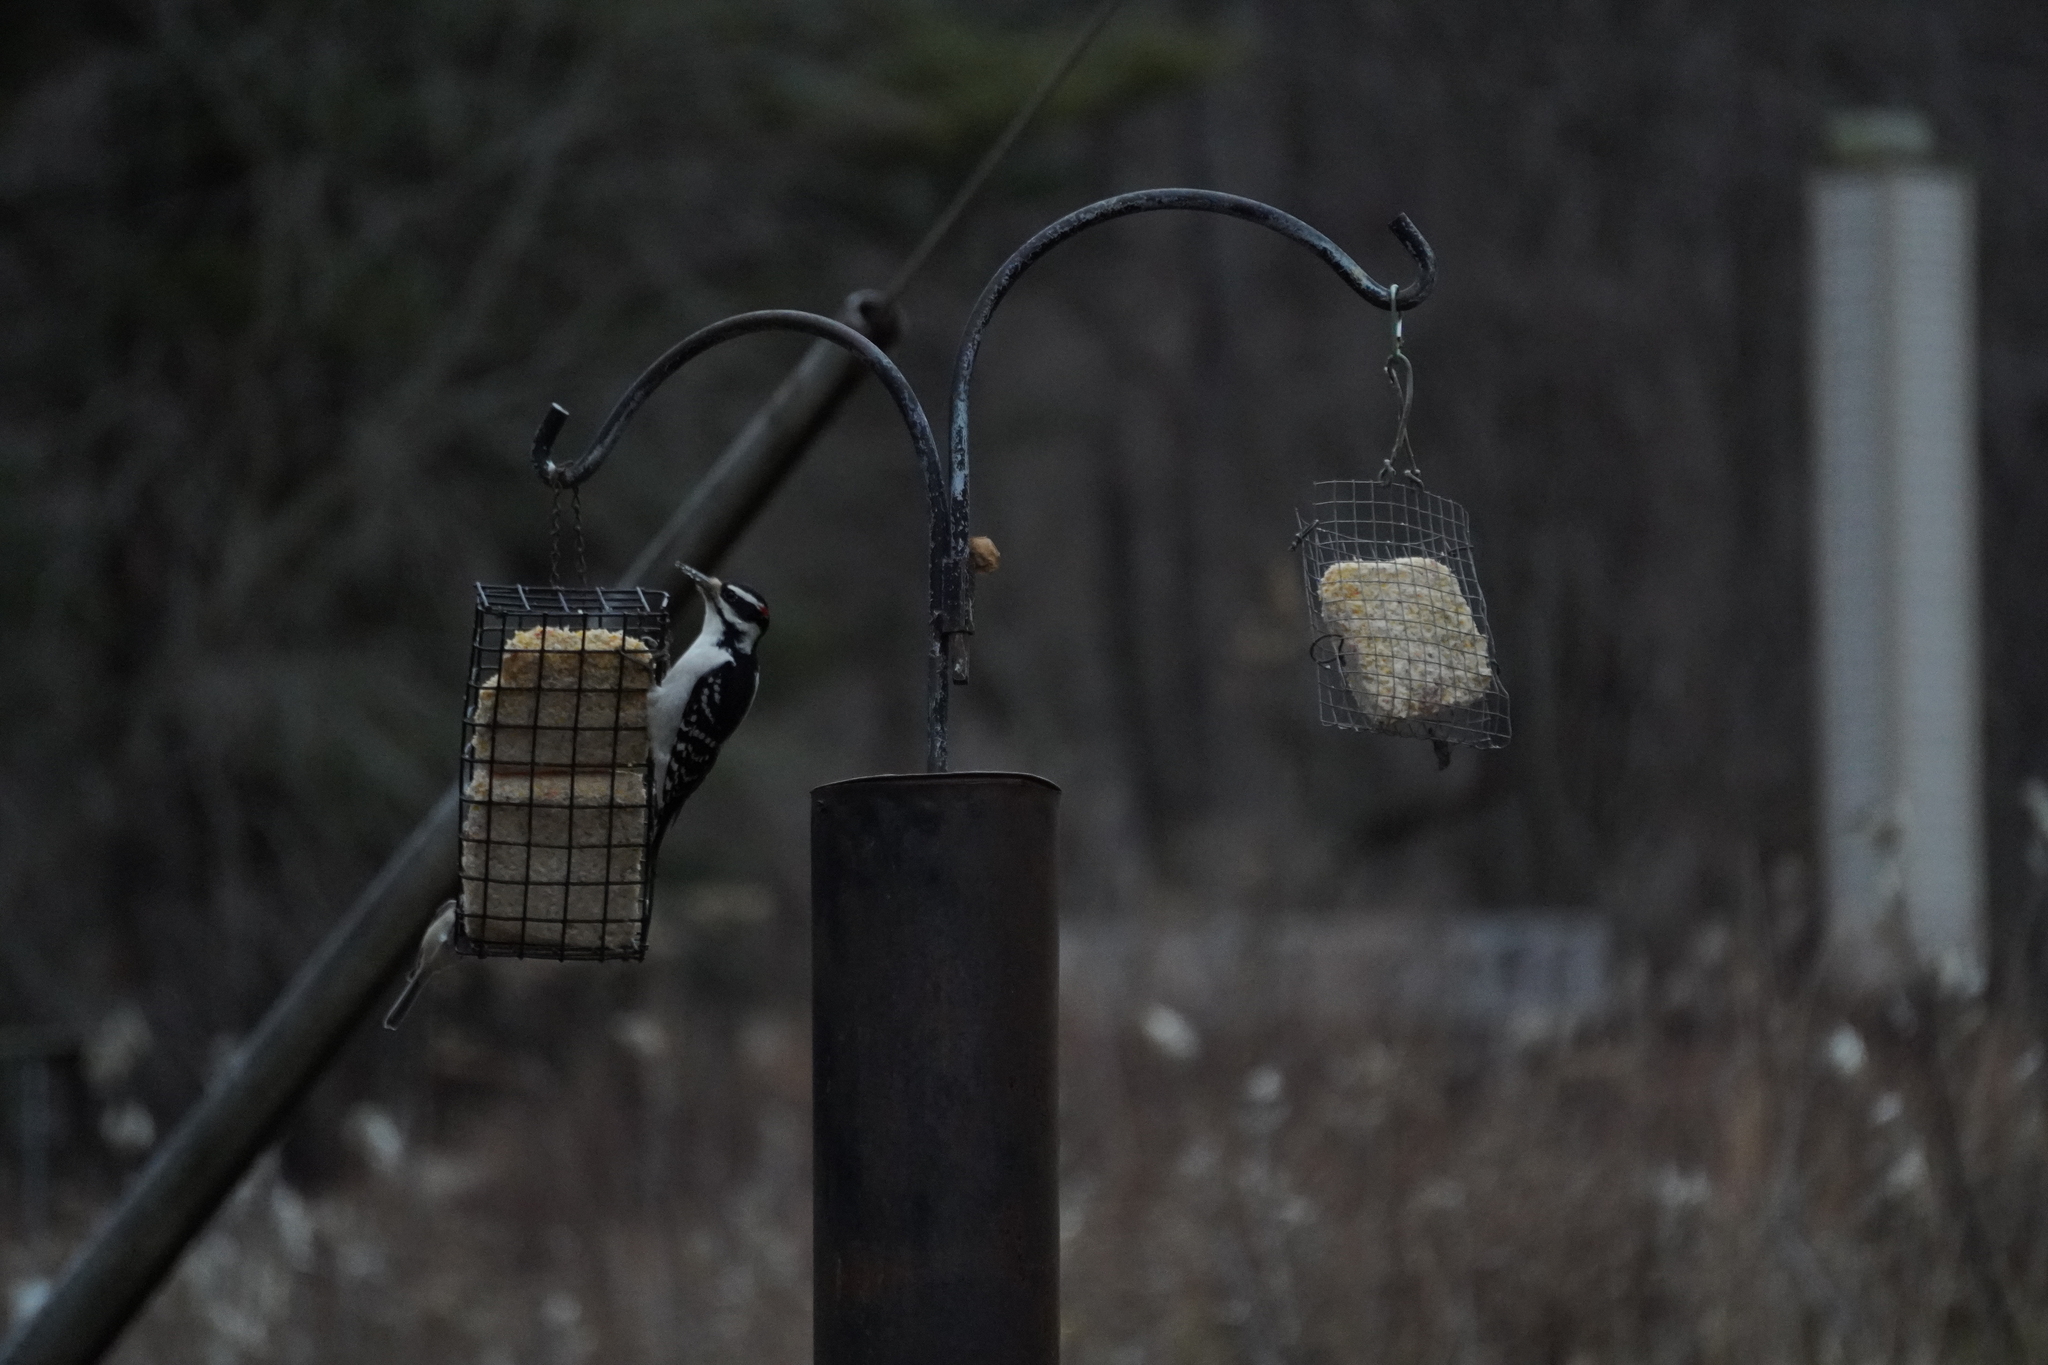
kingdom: Animalia
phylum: Chordata
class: Aves
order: Piciformes
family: Picidae
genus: Leuconotopicus
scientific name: Leuconotopicus villosus
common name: Hairy woodpecker
